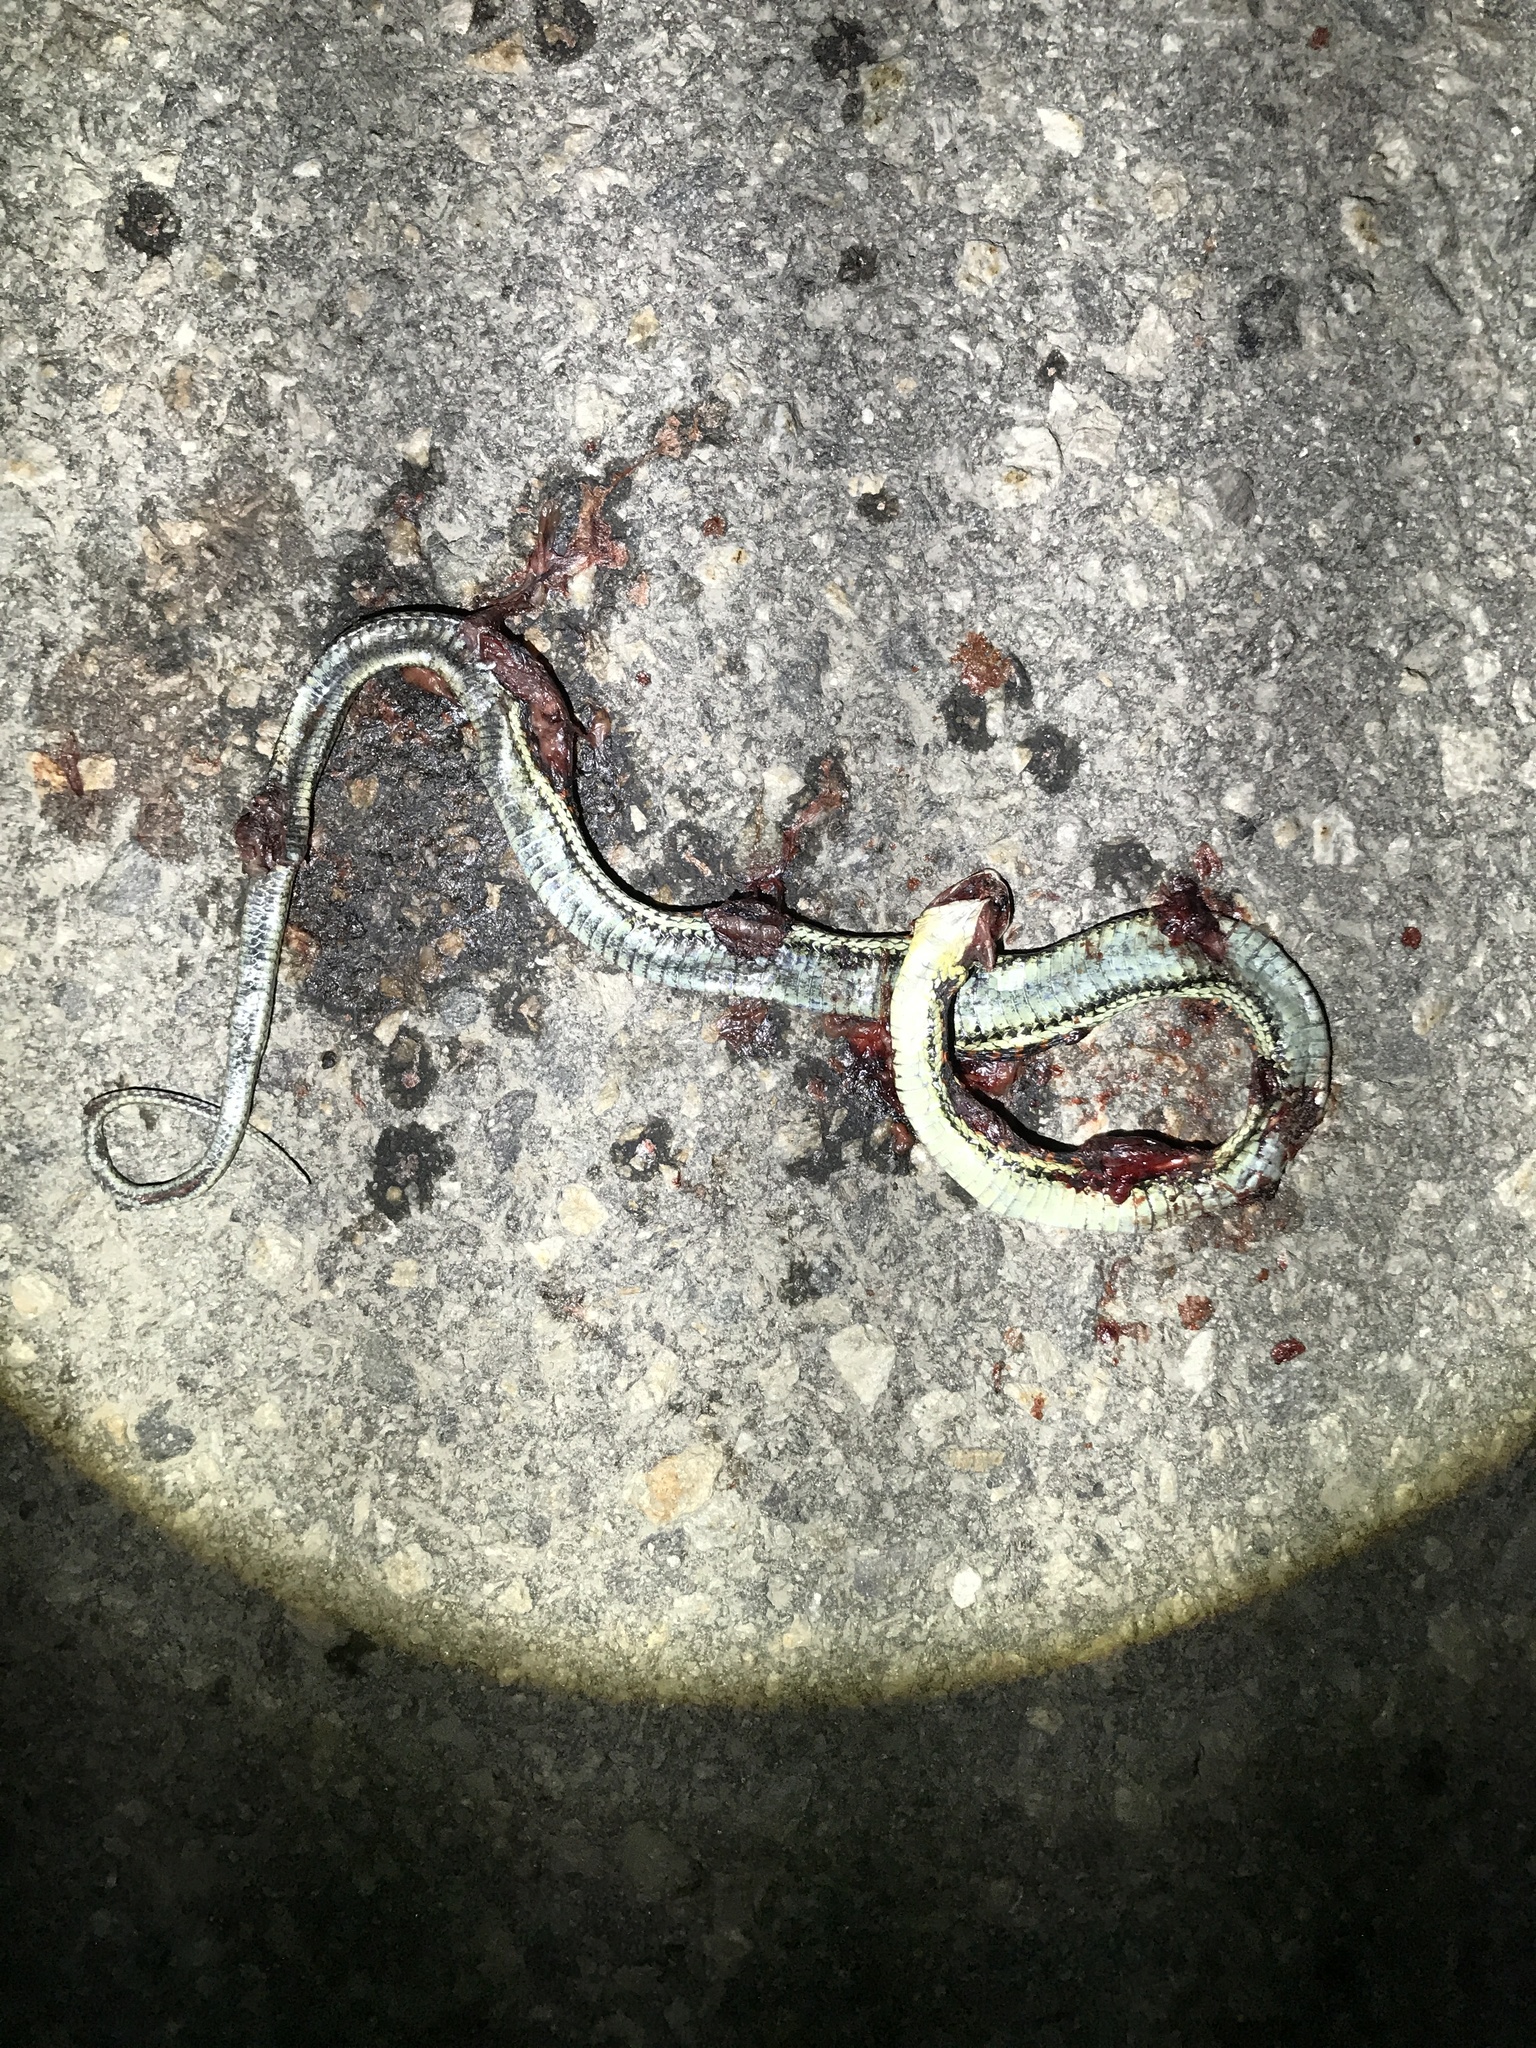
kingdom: Animalia
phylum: Chordata
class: Squamata
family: Colubridae
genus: Thamnophis
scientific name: Thamnophis sirtalis
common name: Common garter snake
